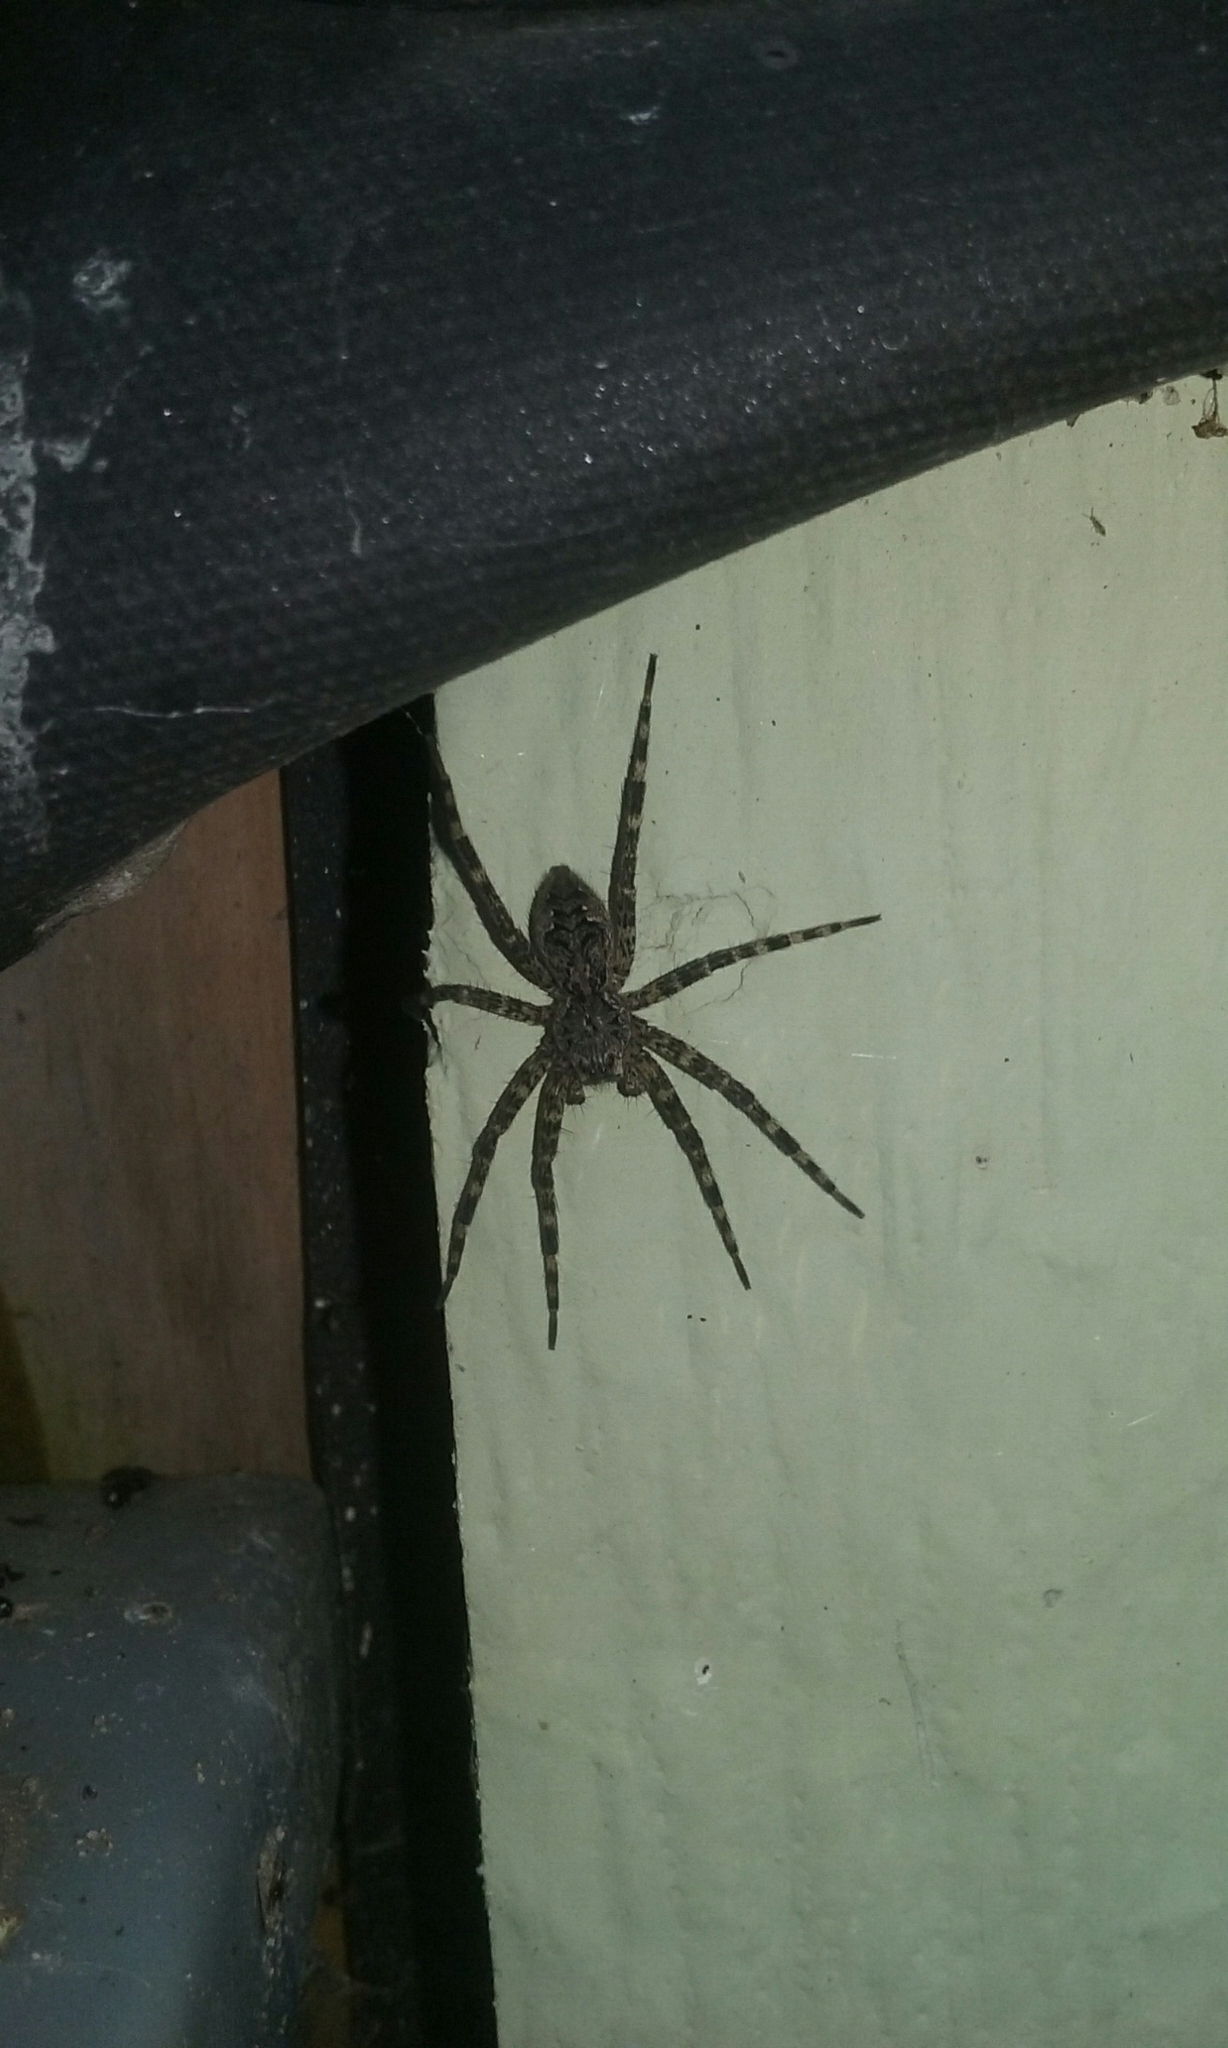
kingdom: Animalia
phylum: Arthropoda
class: Arachnida
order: Araneae
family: Pisauridae
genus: Dolomedes
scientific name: Dolomedes tenebrosus
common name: Dark fishing spider
